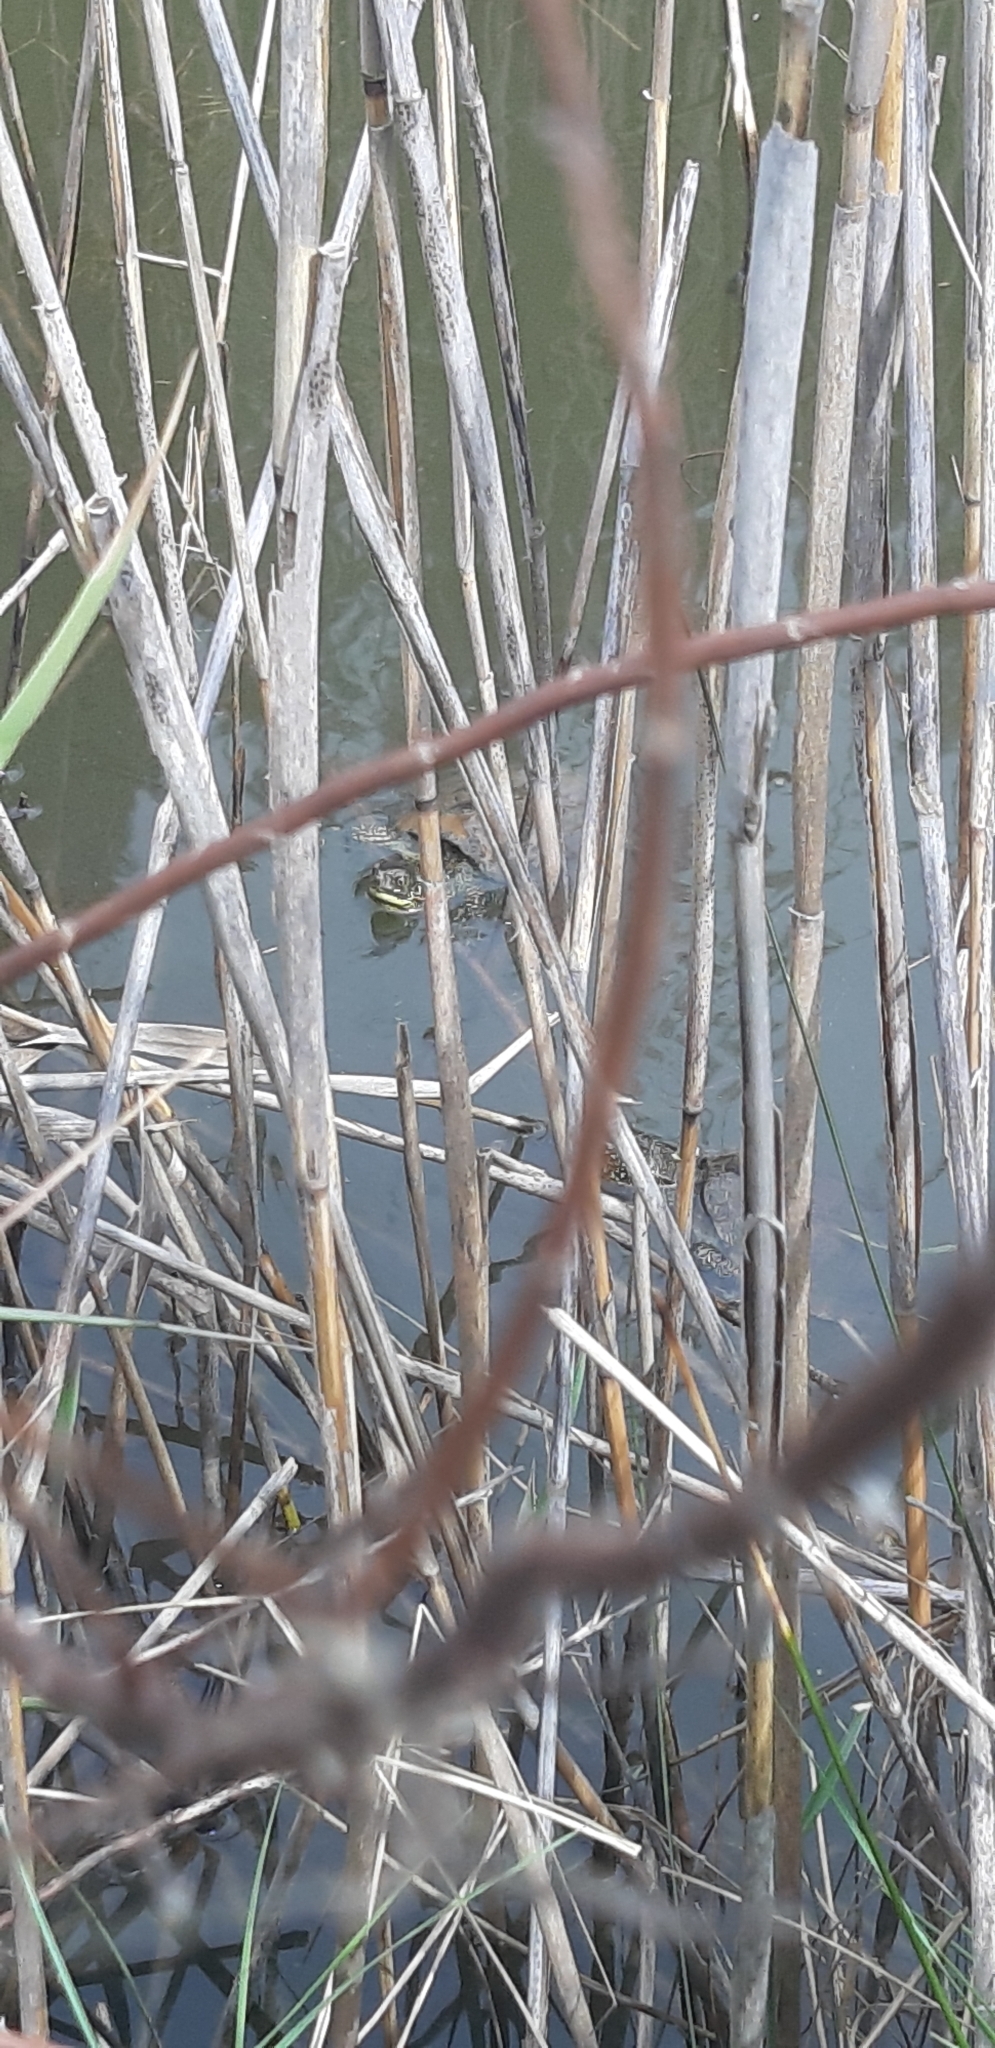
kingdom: Animalia
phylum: Chordata
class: Testudines
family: Emydidae
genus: Emys
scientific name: Emys orbicularis
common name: European pond turtle
